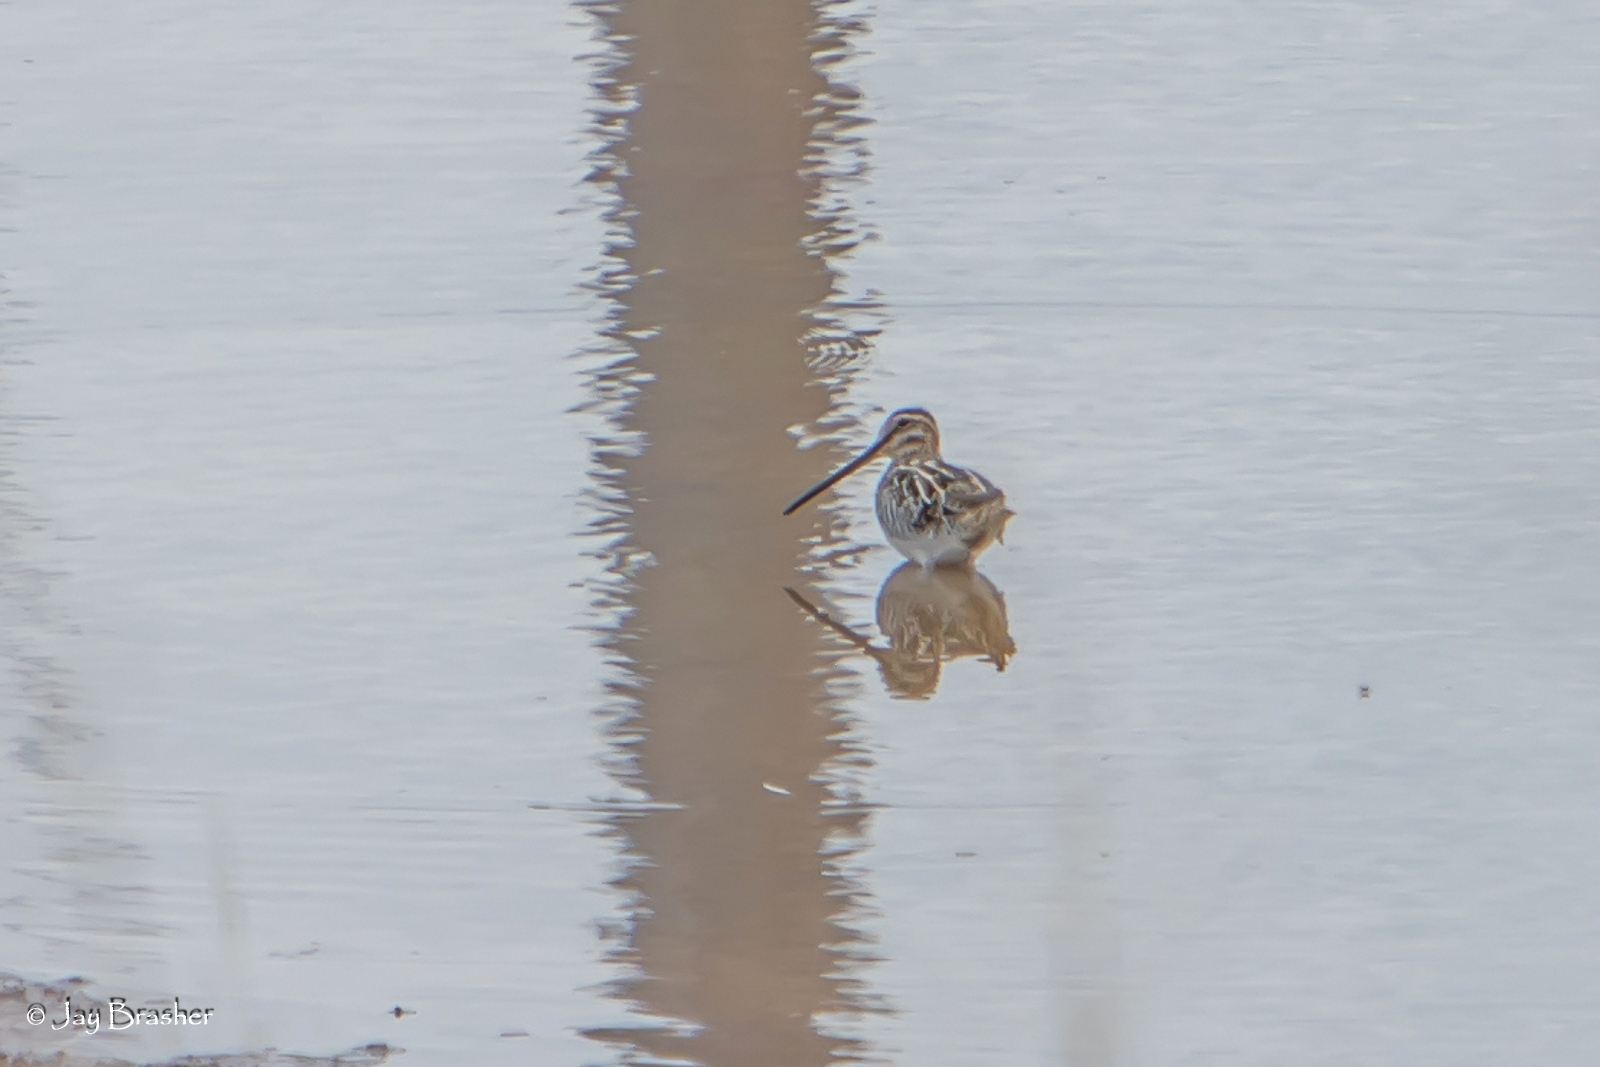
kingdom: Animalia
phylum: Chordata
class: Aves
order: Charadriiformes
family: Scolopacidae
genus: Gallinago
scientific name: Gallinago delicata
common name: Wilson's snipe
